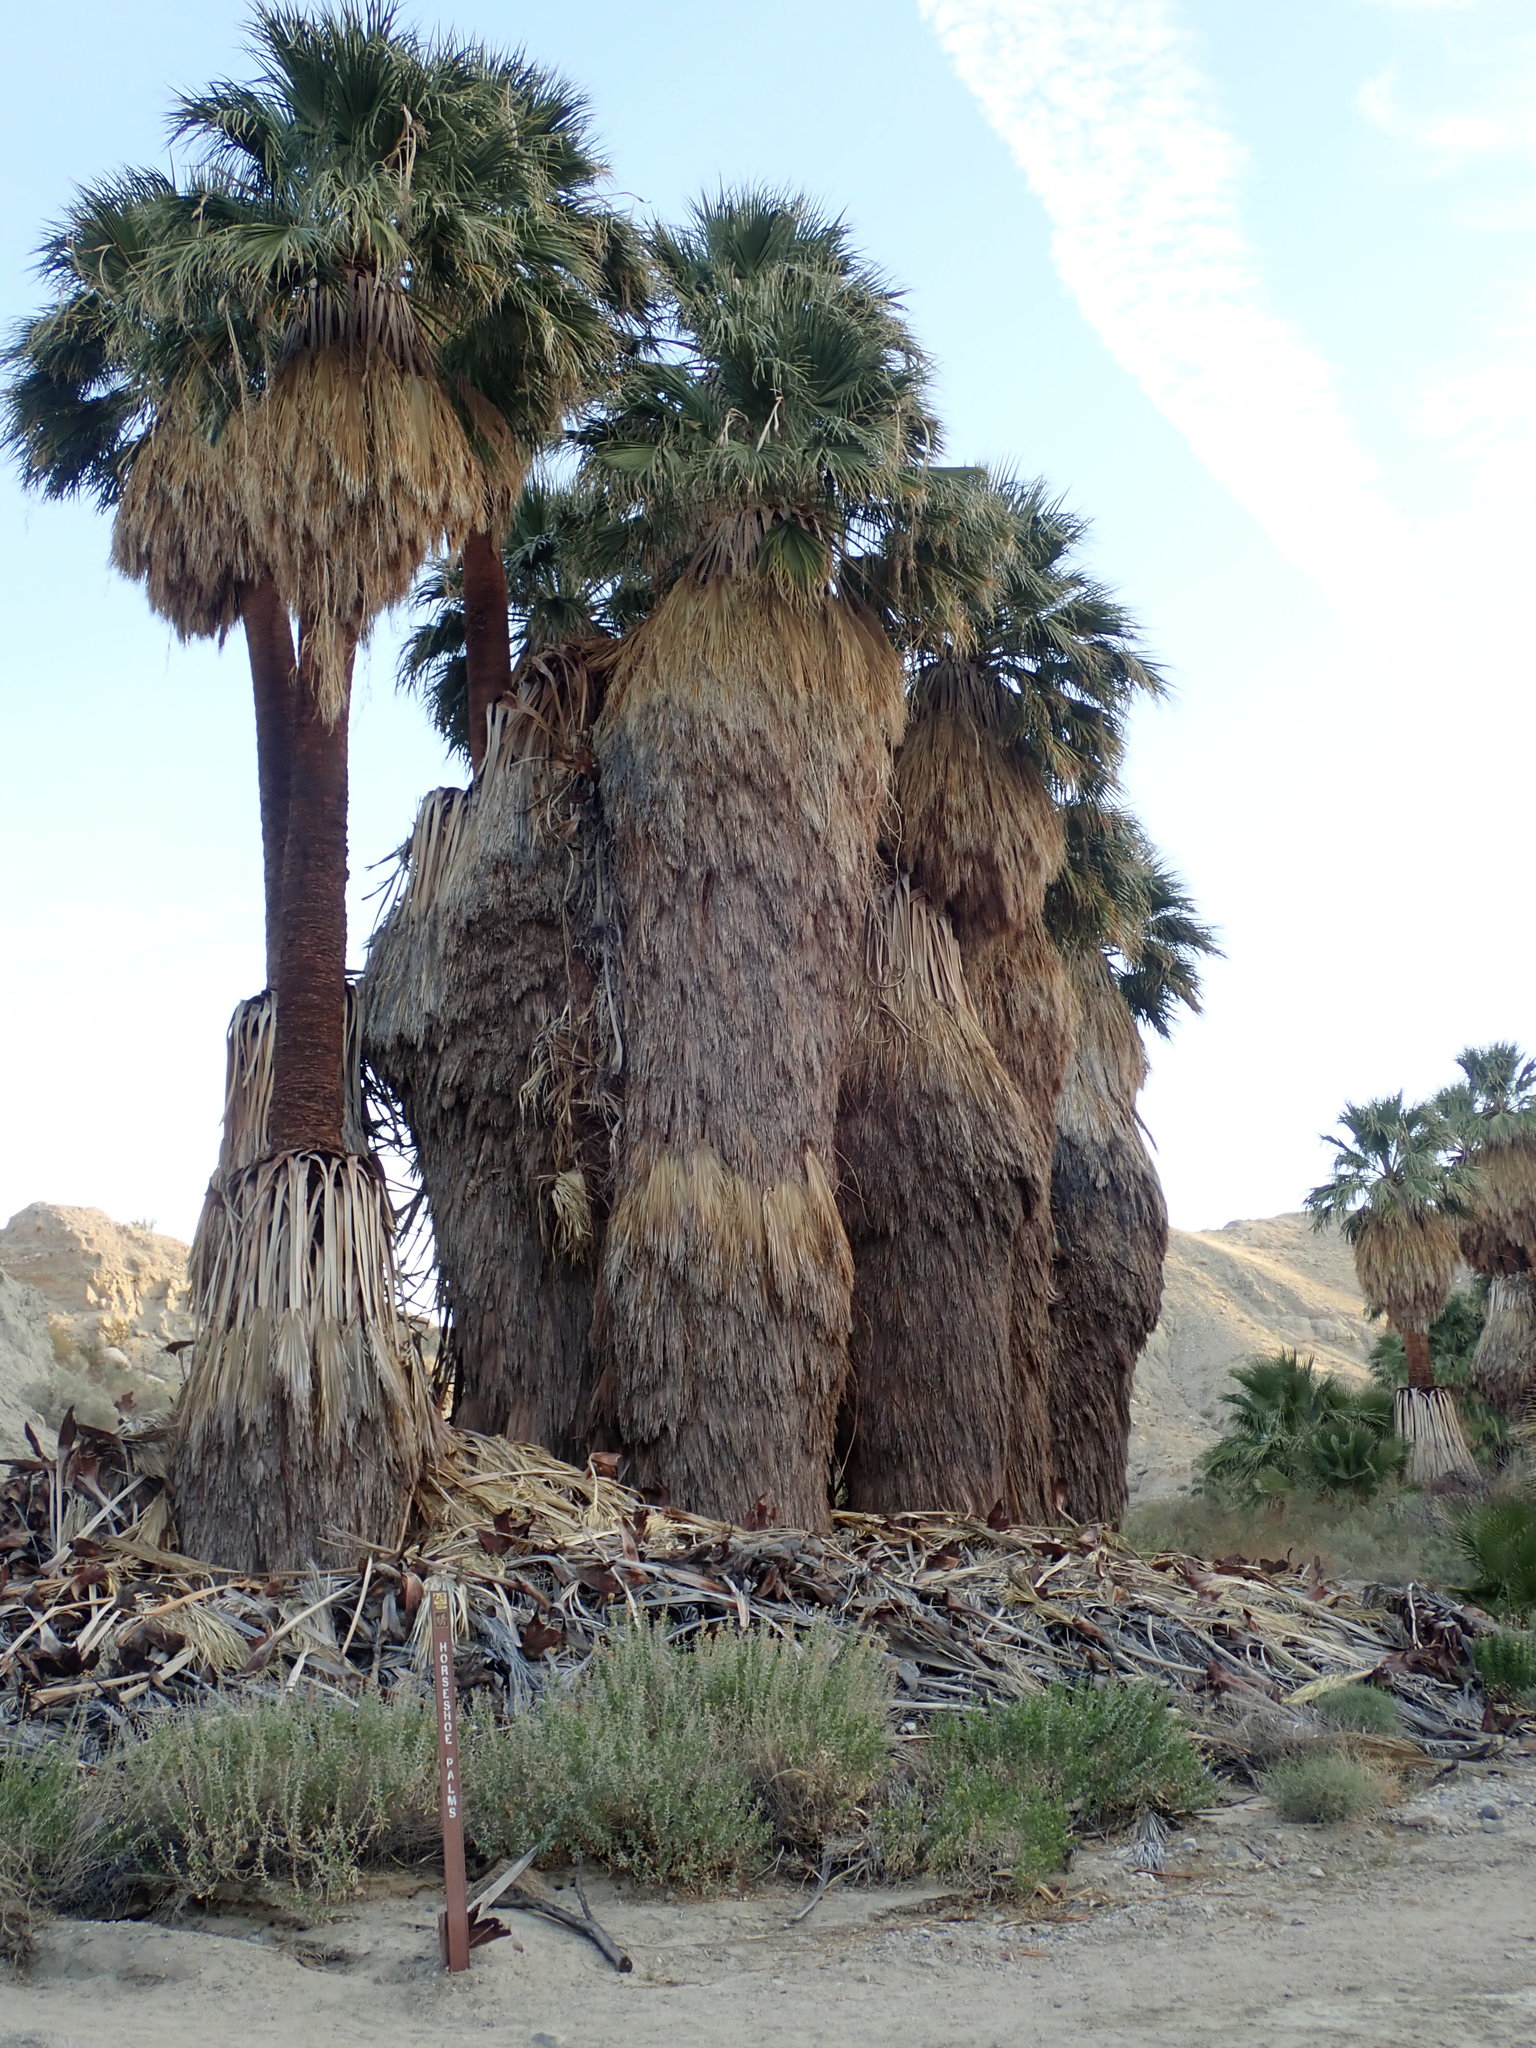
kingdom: Plantae
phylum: Tracheophyta
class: Liliopsida
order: Arecales
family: Arecaceae
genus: Washingtonia
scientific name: Washingtonia filifera
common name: California fan palm
